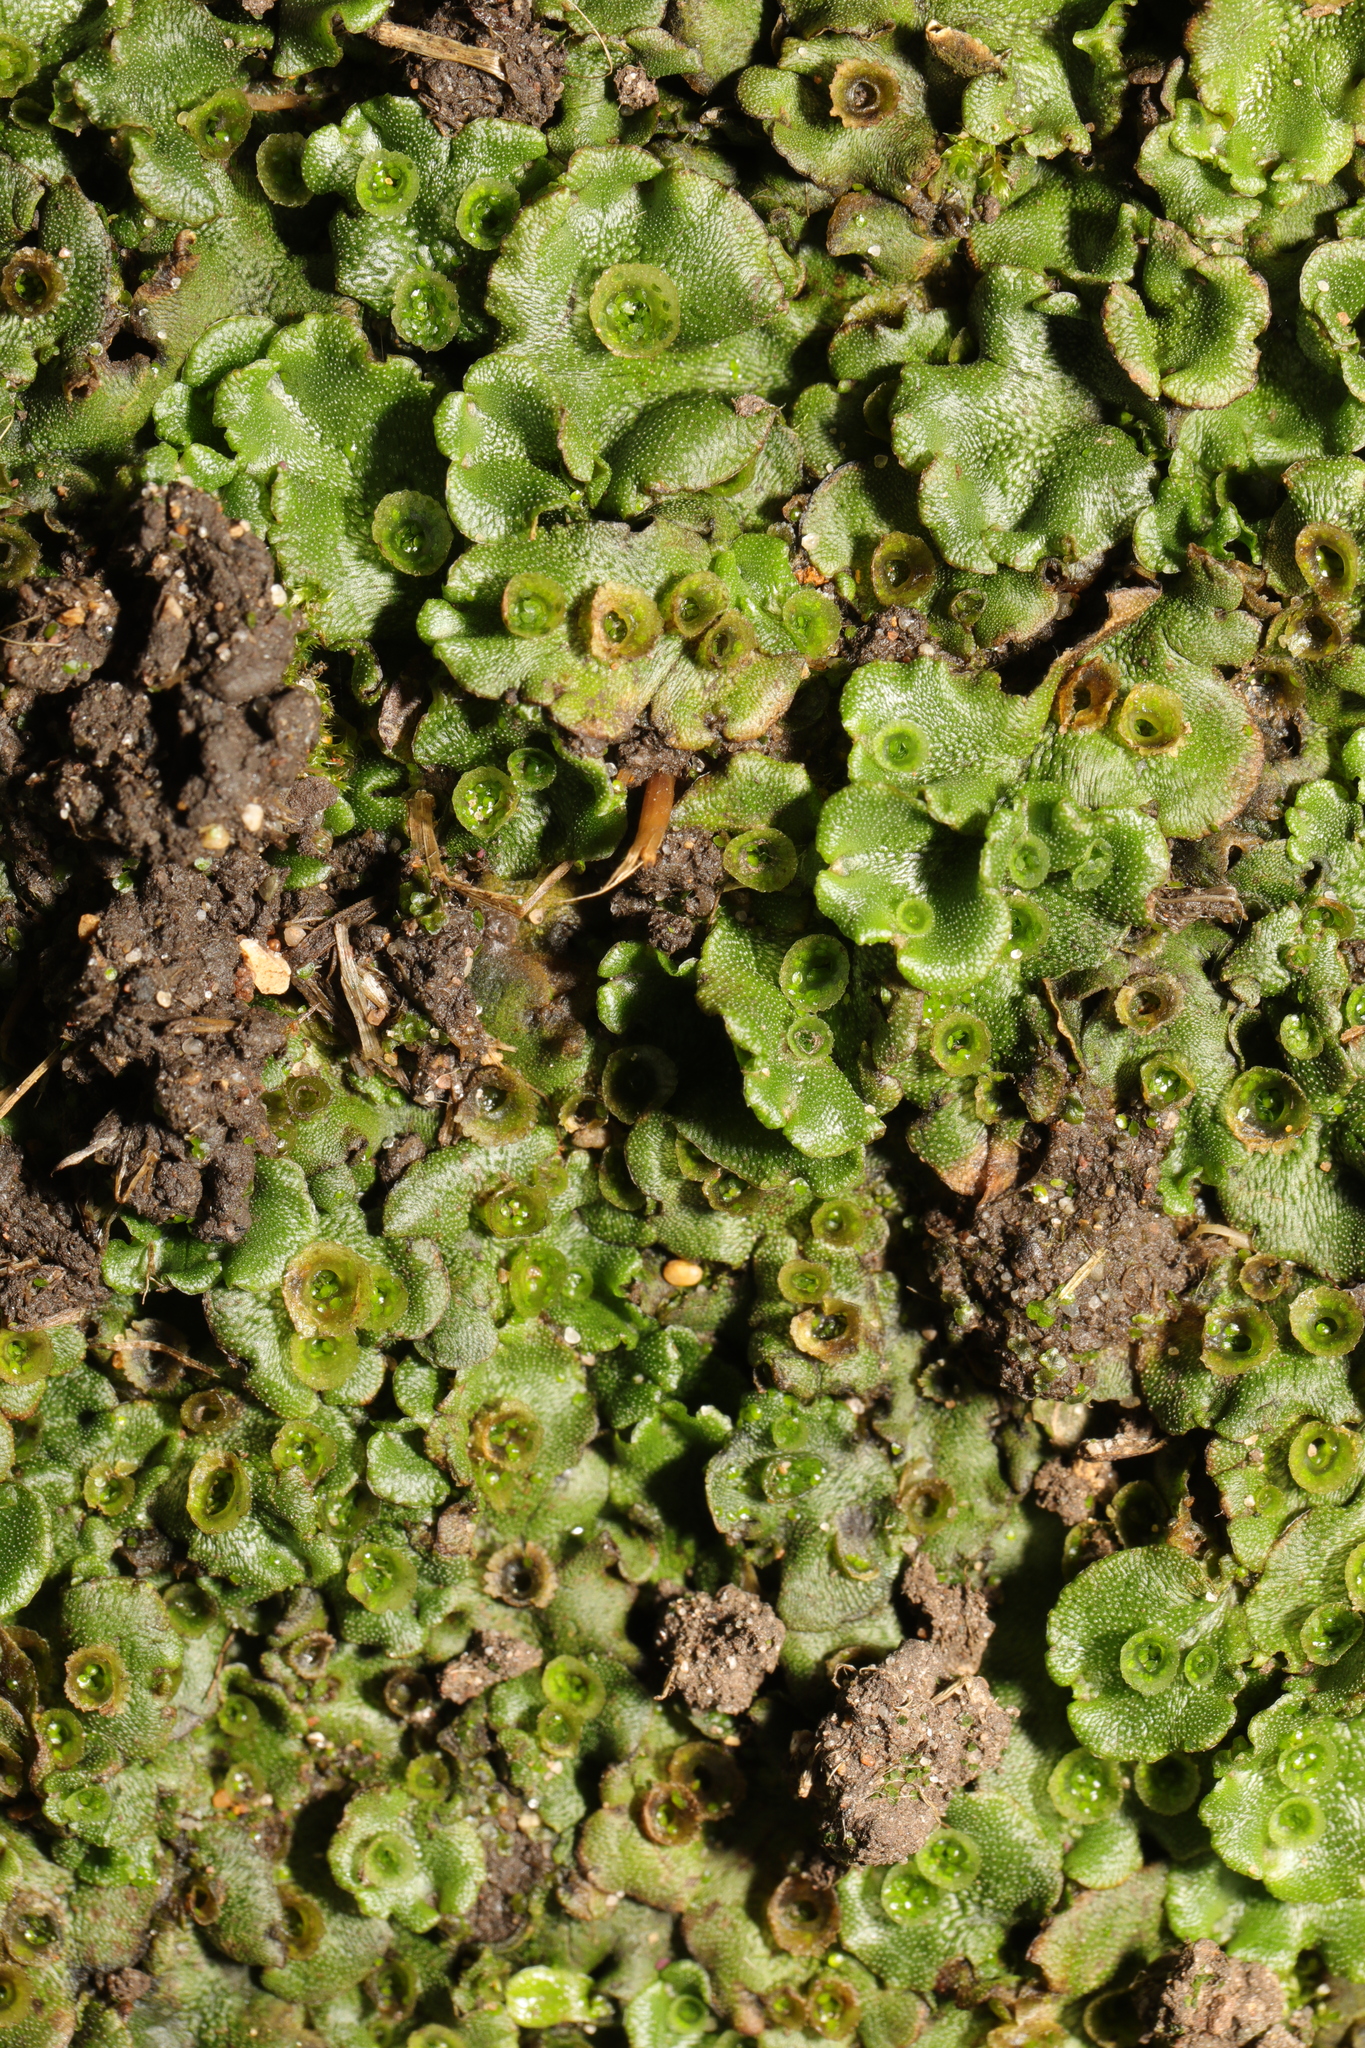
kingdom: Plantae
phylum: Marchantiophyta
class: Marchantiopsida
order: Marchantiales
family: Marchantiaceae
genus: Marchantia
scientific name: Marchantia polymorpha
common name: Common liverwort
